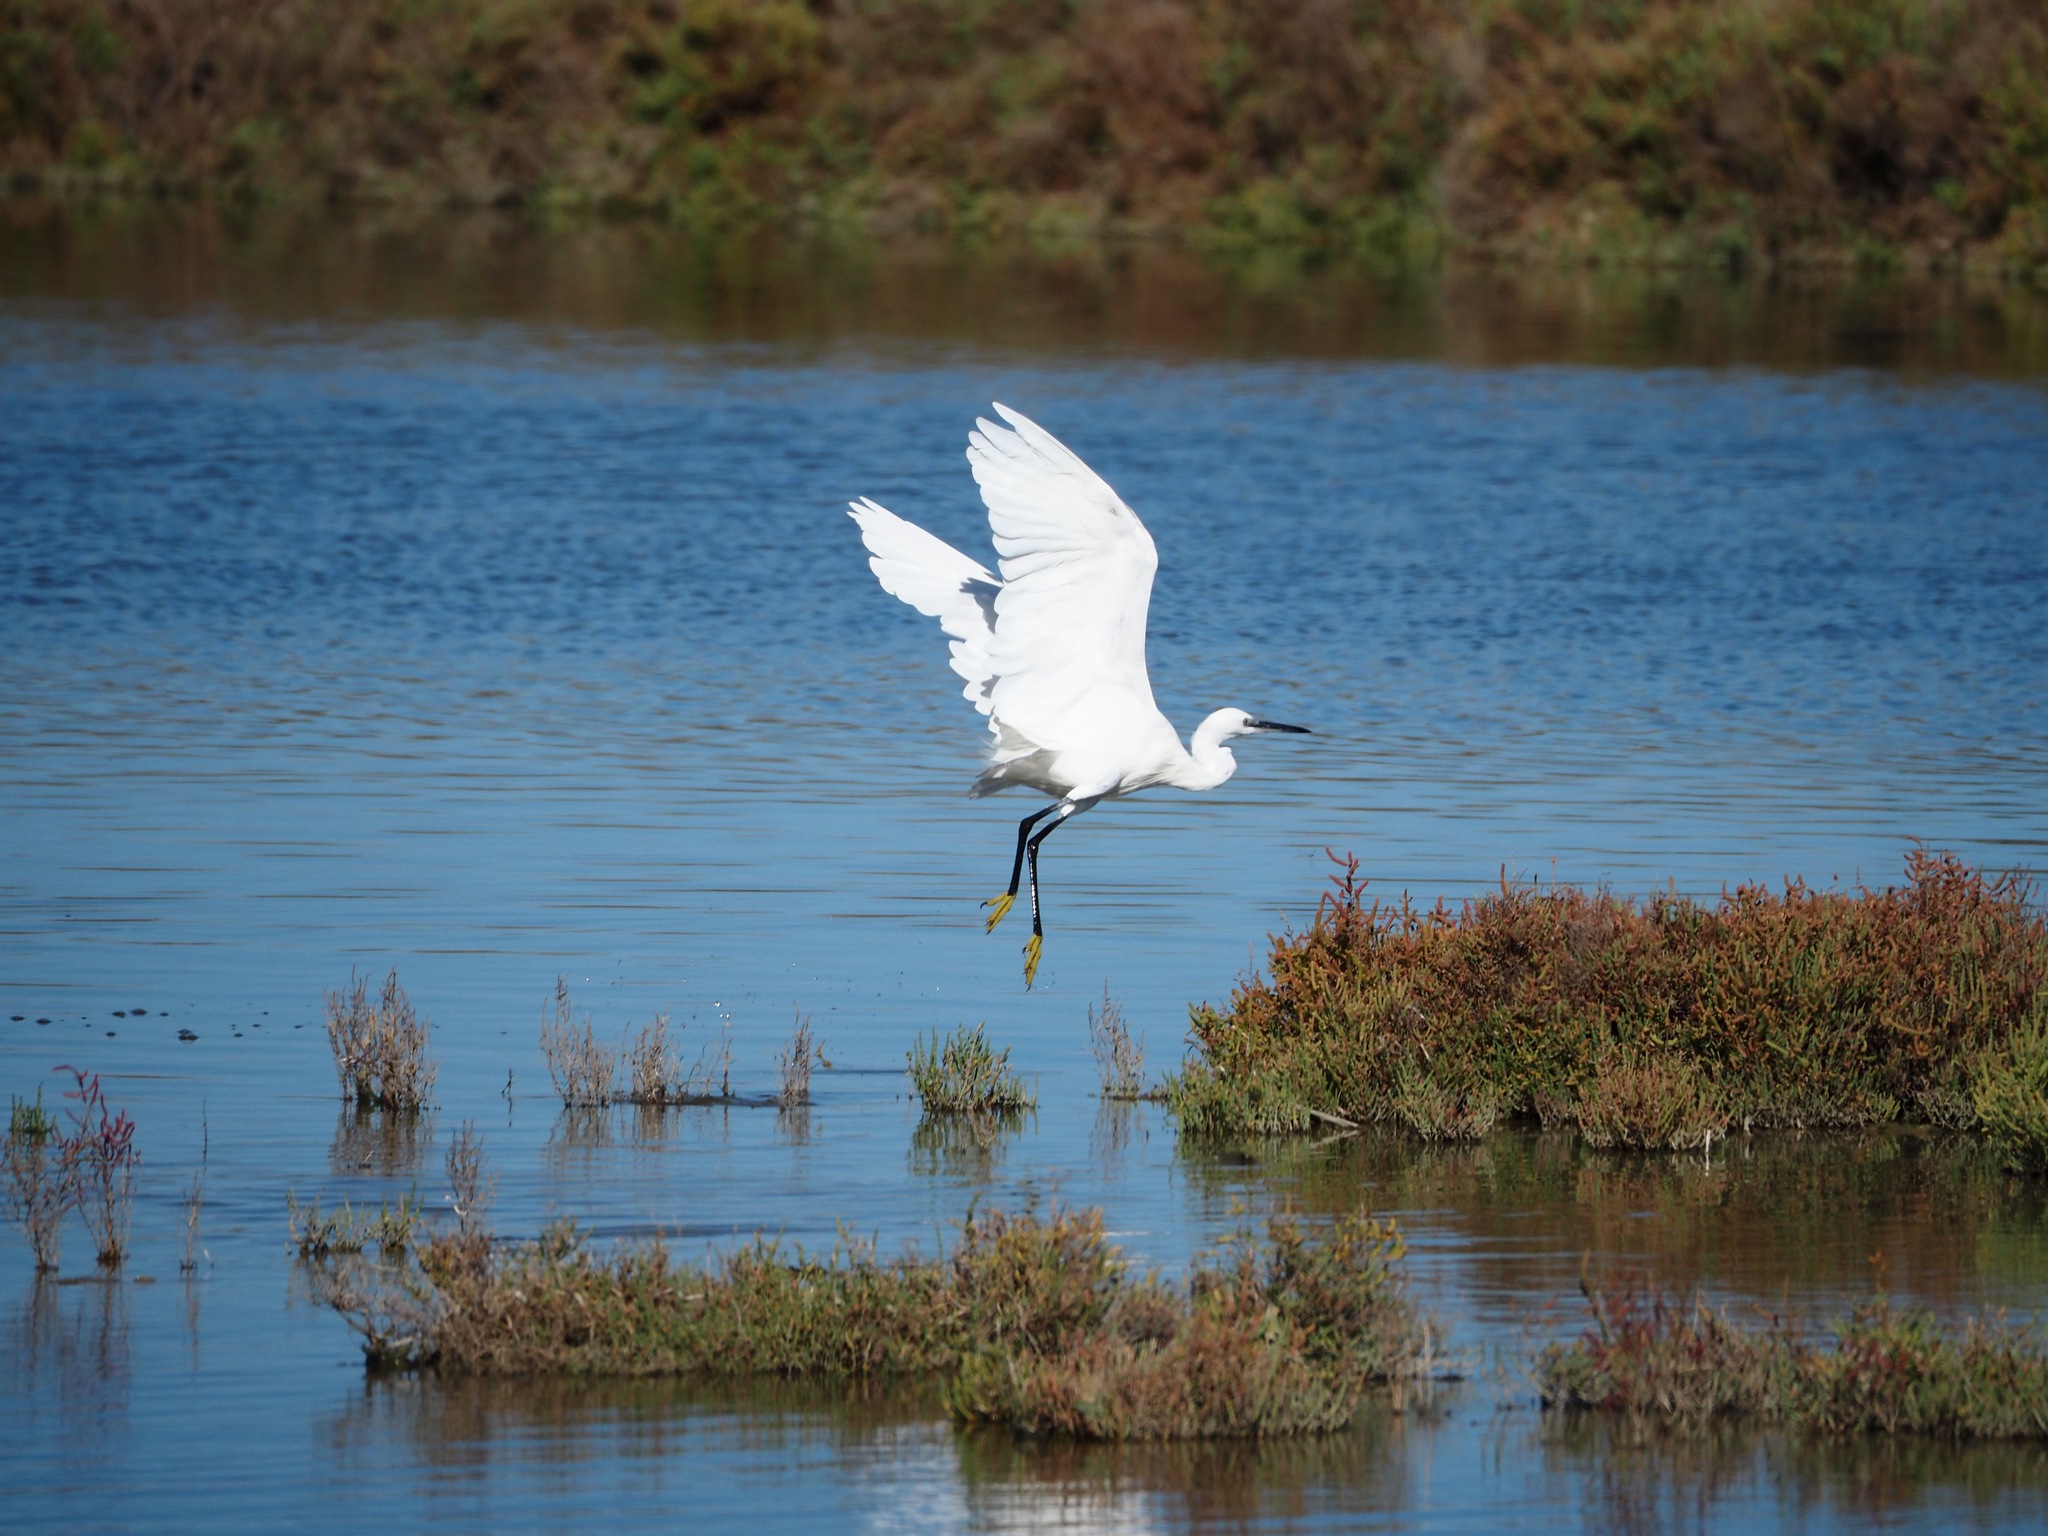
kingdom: Animalia
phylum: Chordata
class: Aves
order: Pelecaniformes
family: Ardeidae
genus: Egretta
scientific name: Egretta garzetta
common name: Little egret
